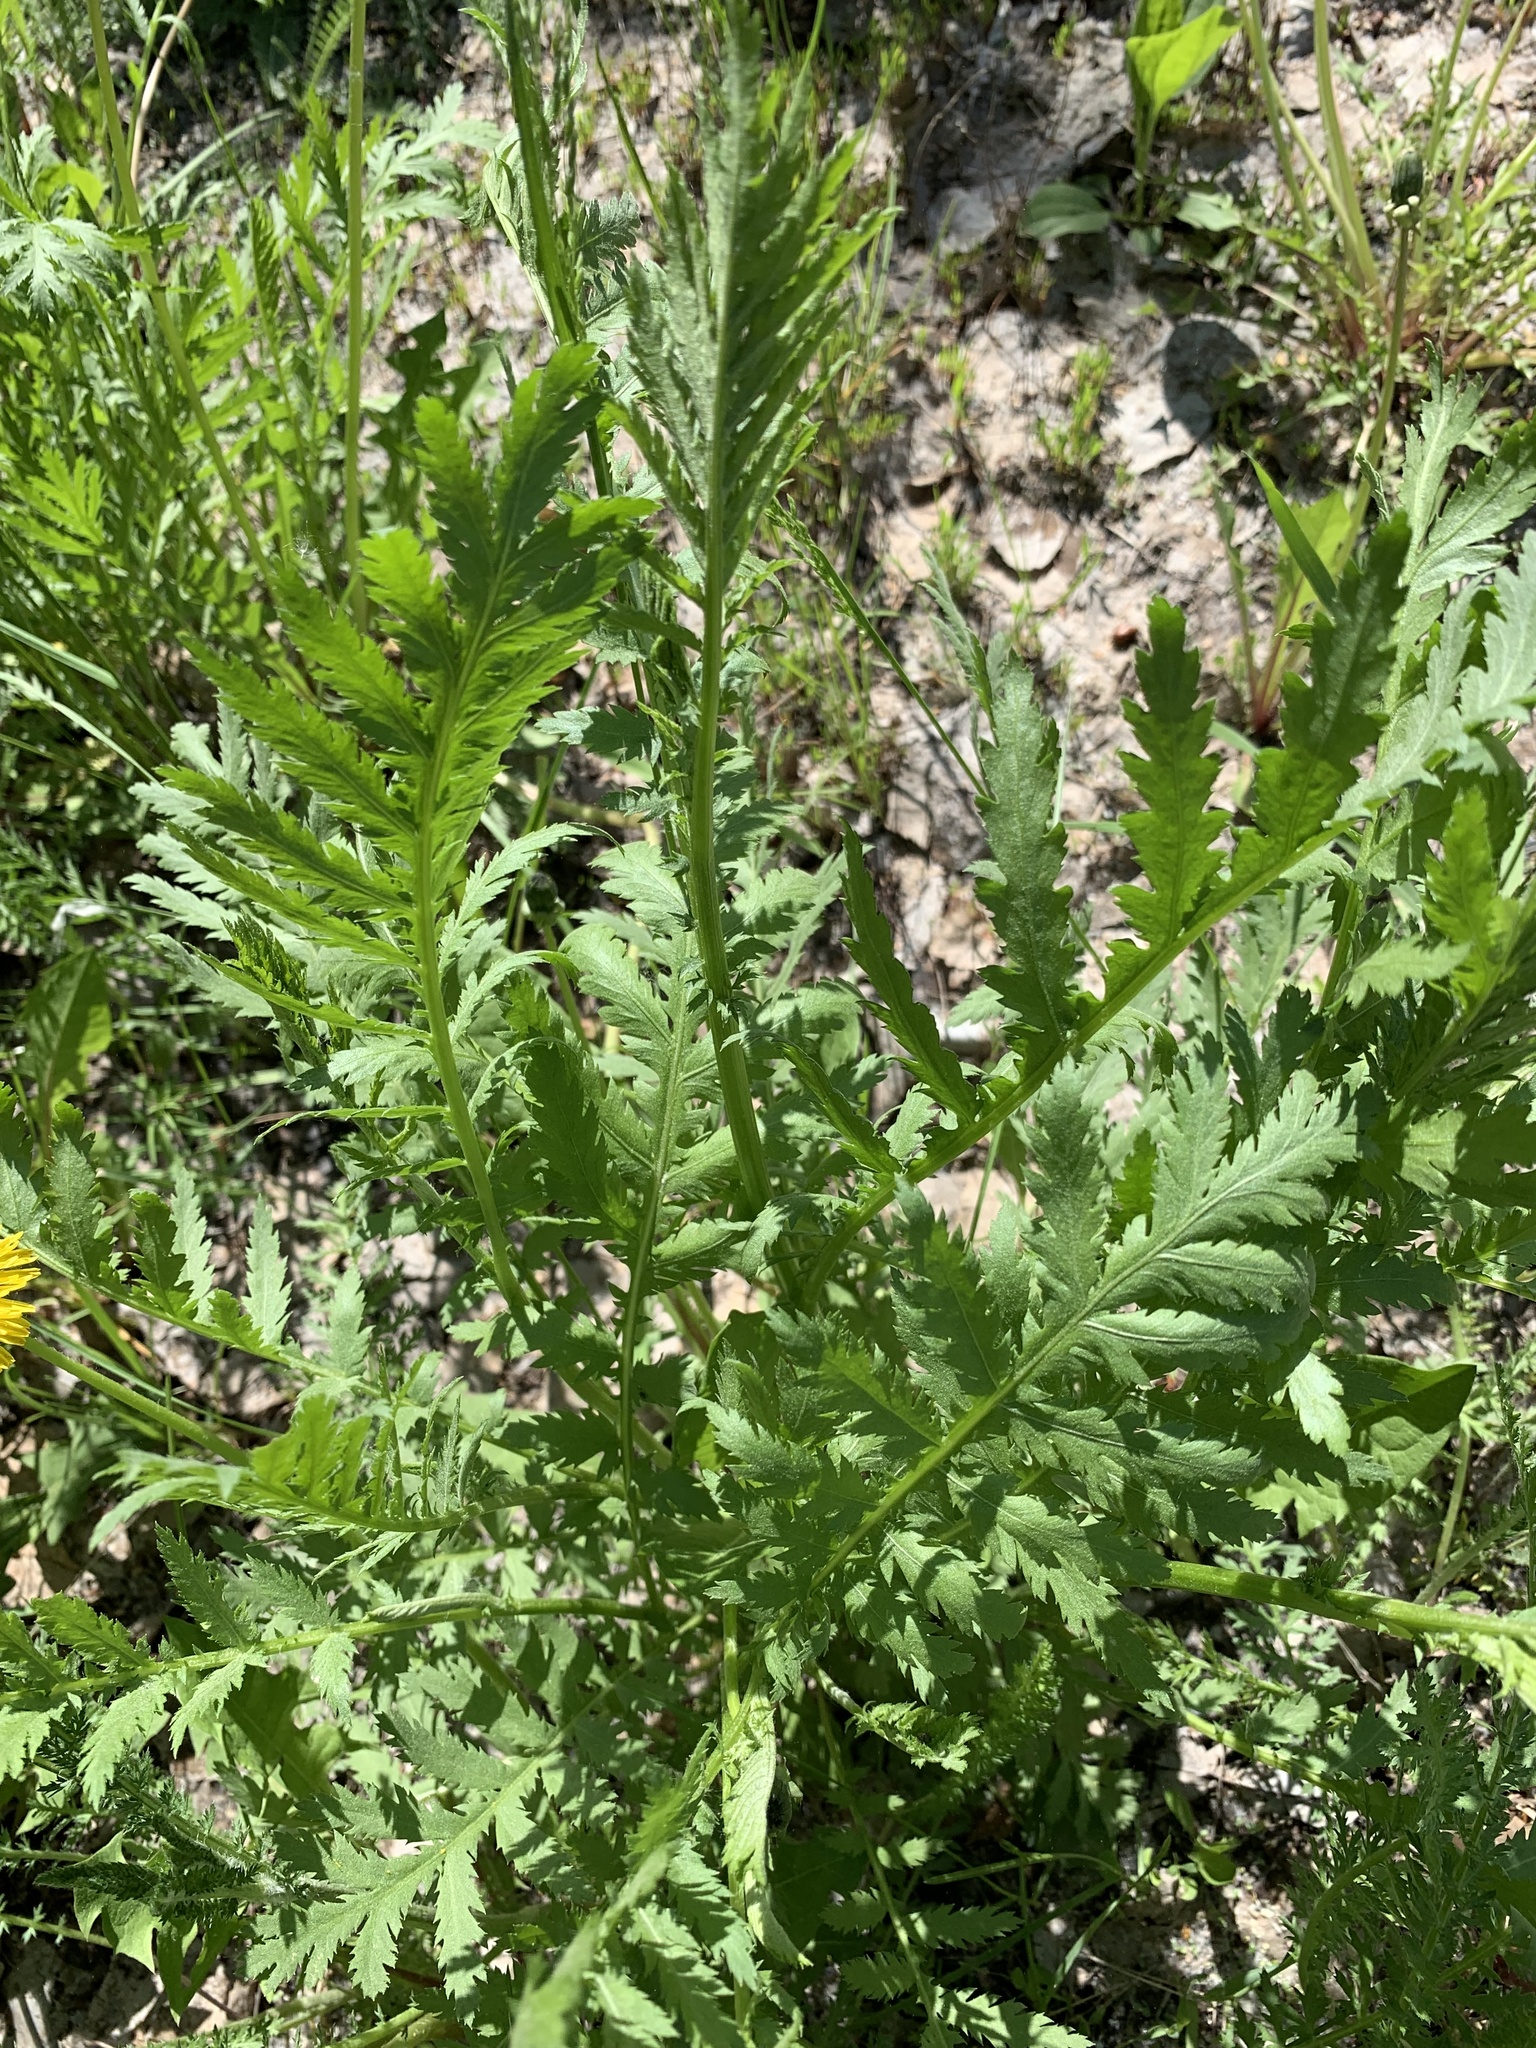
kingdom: Plantae
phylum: Tracheophyta
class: Magnoliopsida
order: Asterales
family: Asteraceae
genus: Tanacetum
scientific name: Tanacetum vulgare
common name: Common tansy
